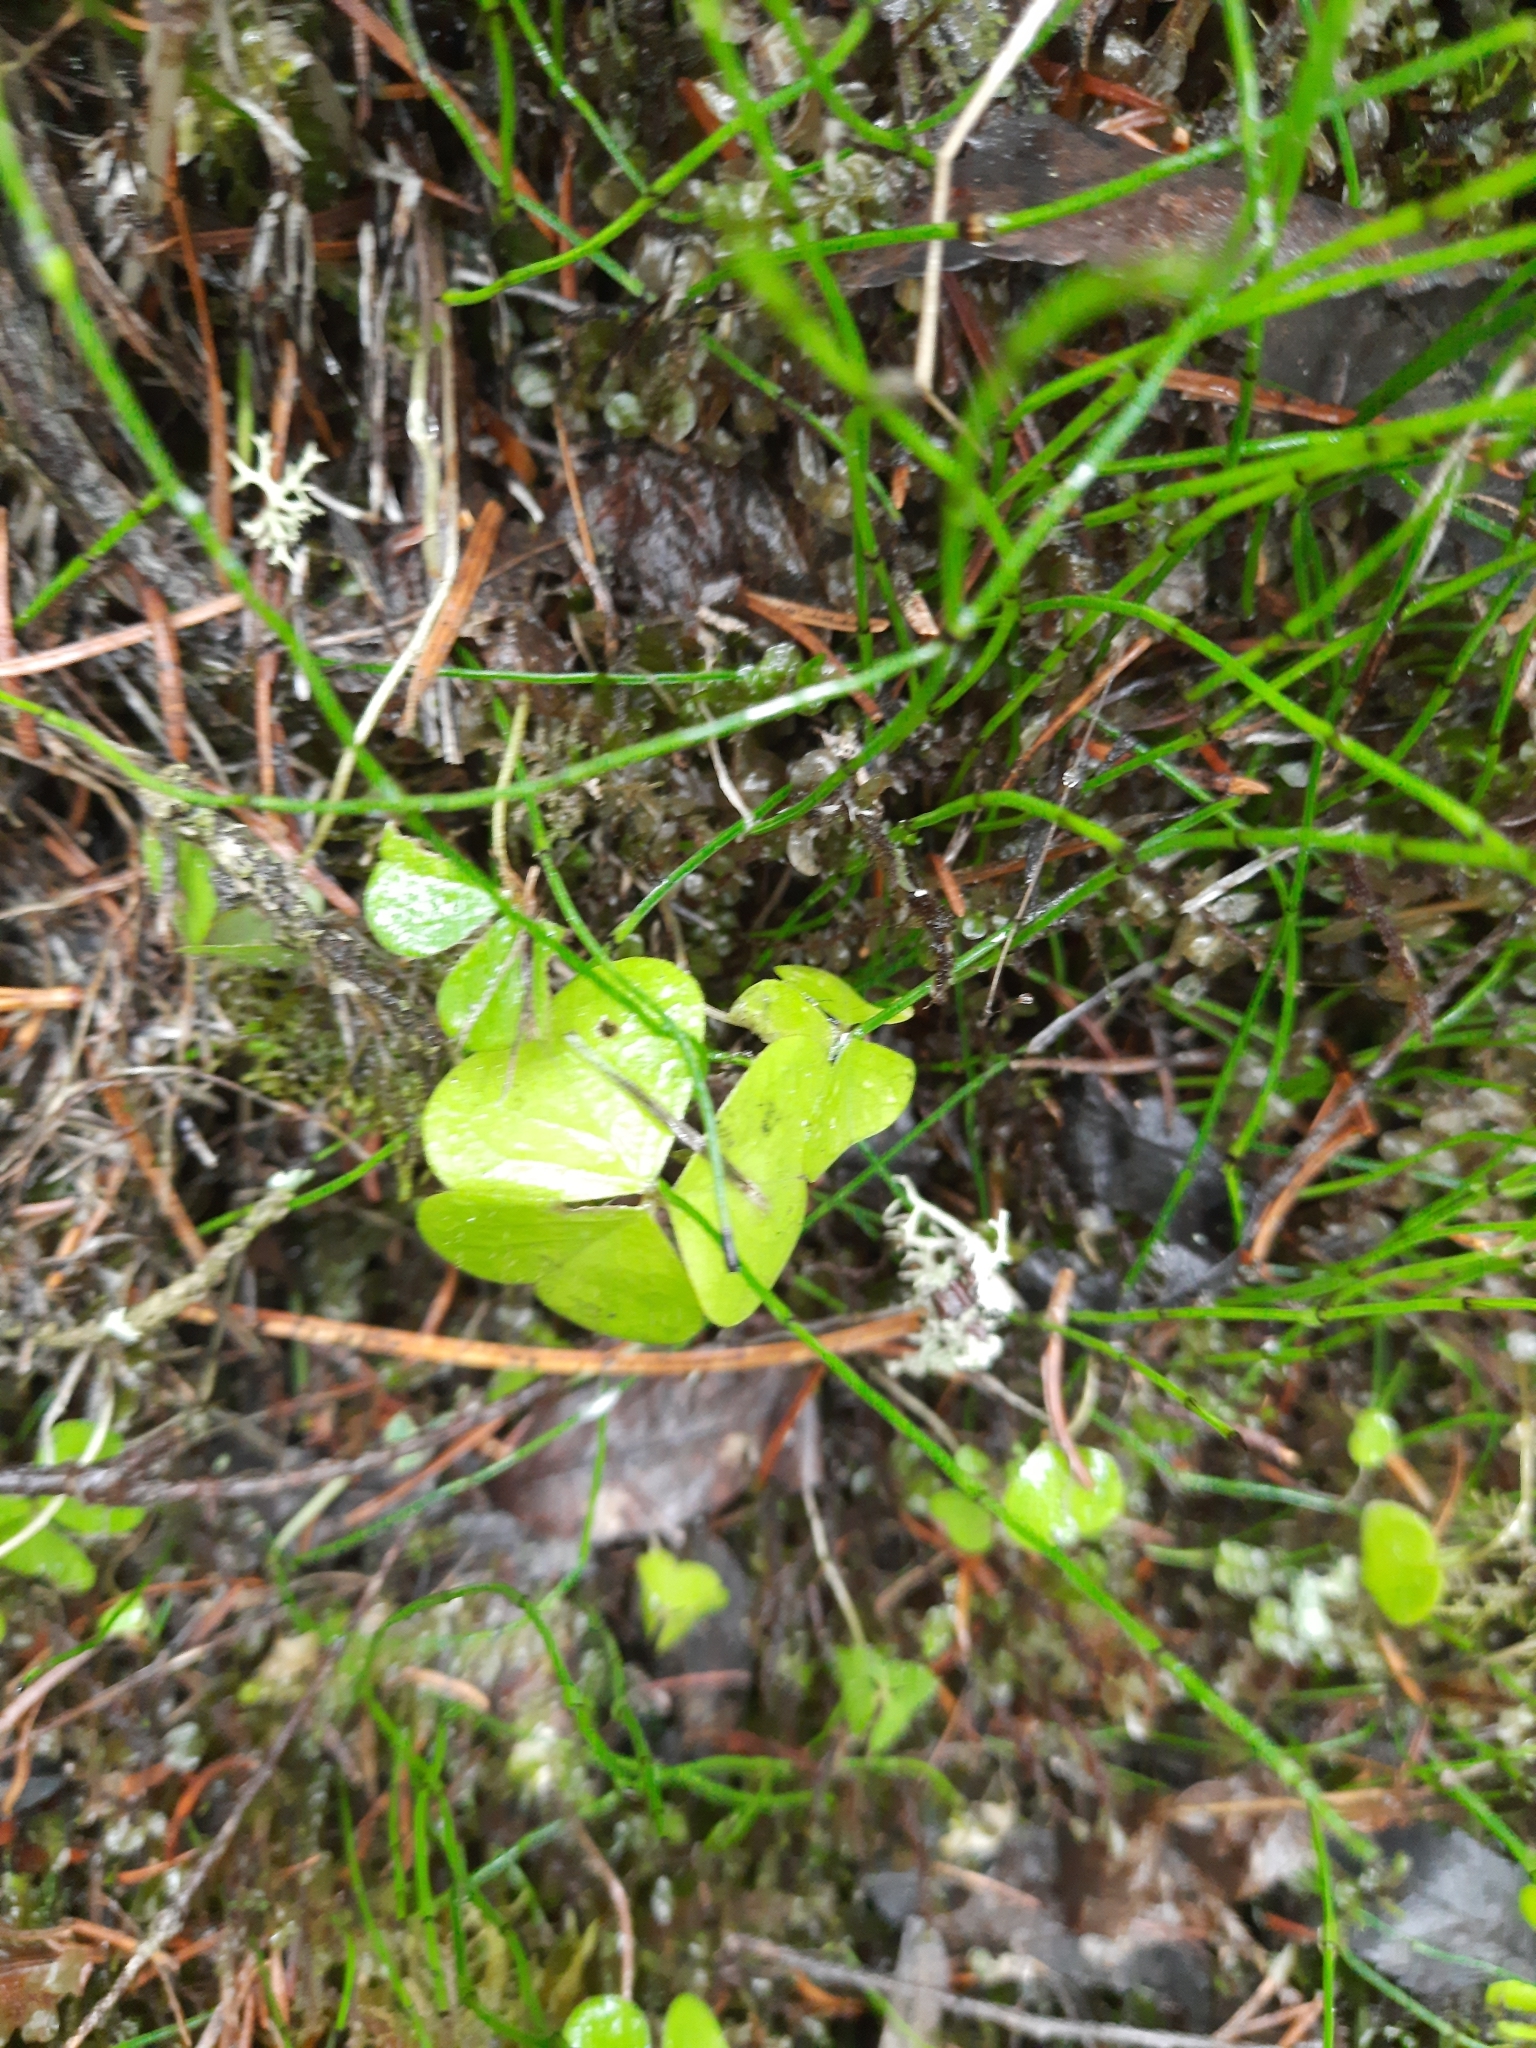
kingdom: Plantae
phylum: Tracheophyta
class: Magnoliopsida
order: Oxalidales
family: Oxalidaceae
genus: Oxalis
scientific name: Oxalis acetosella
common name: Wood-sorrel
